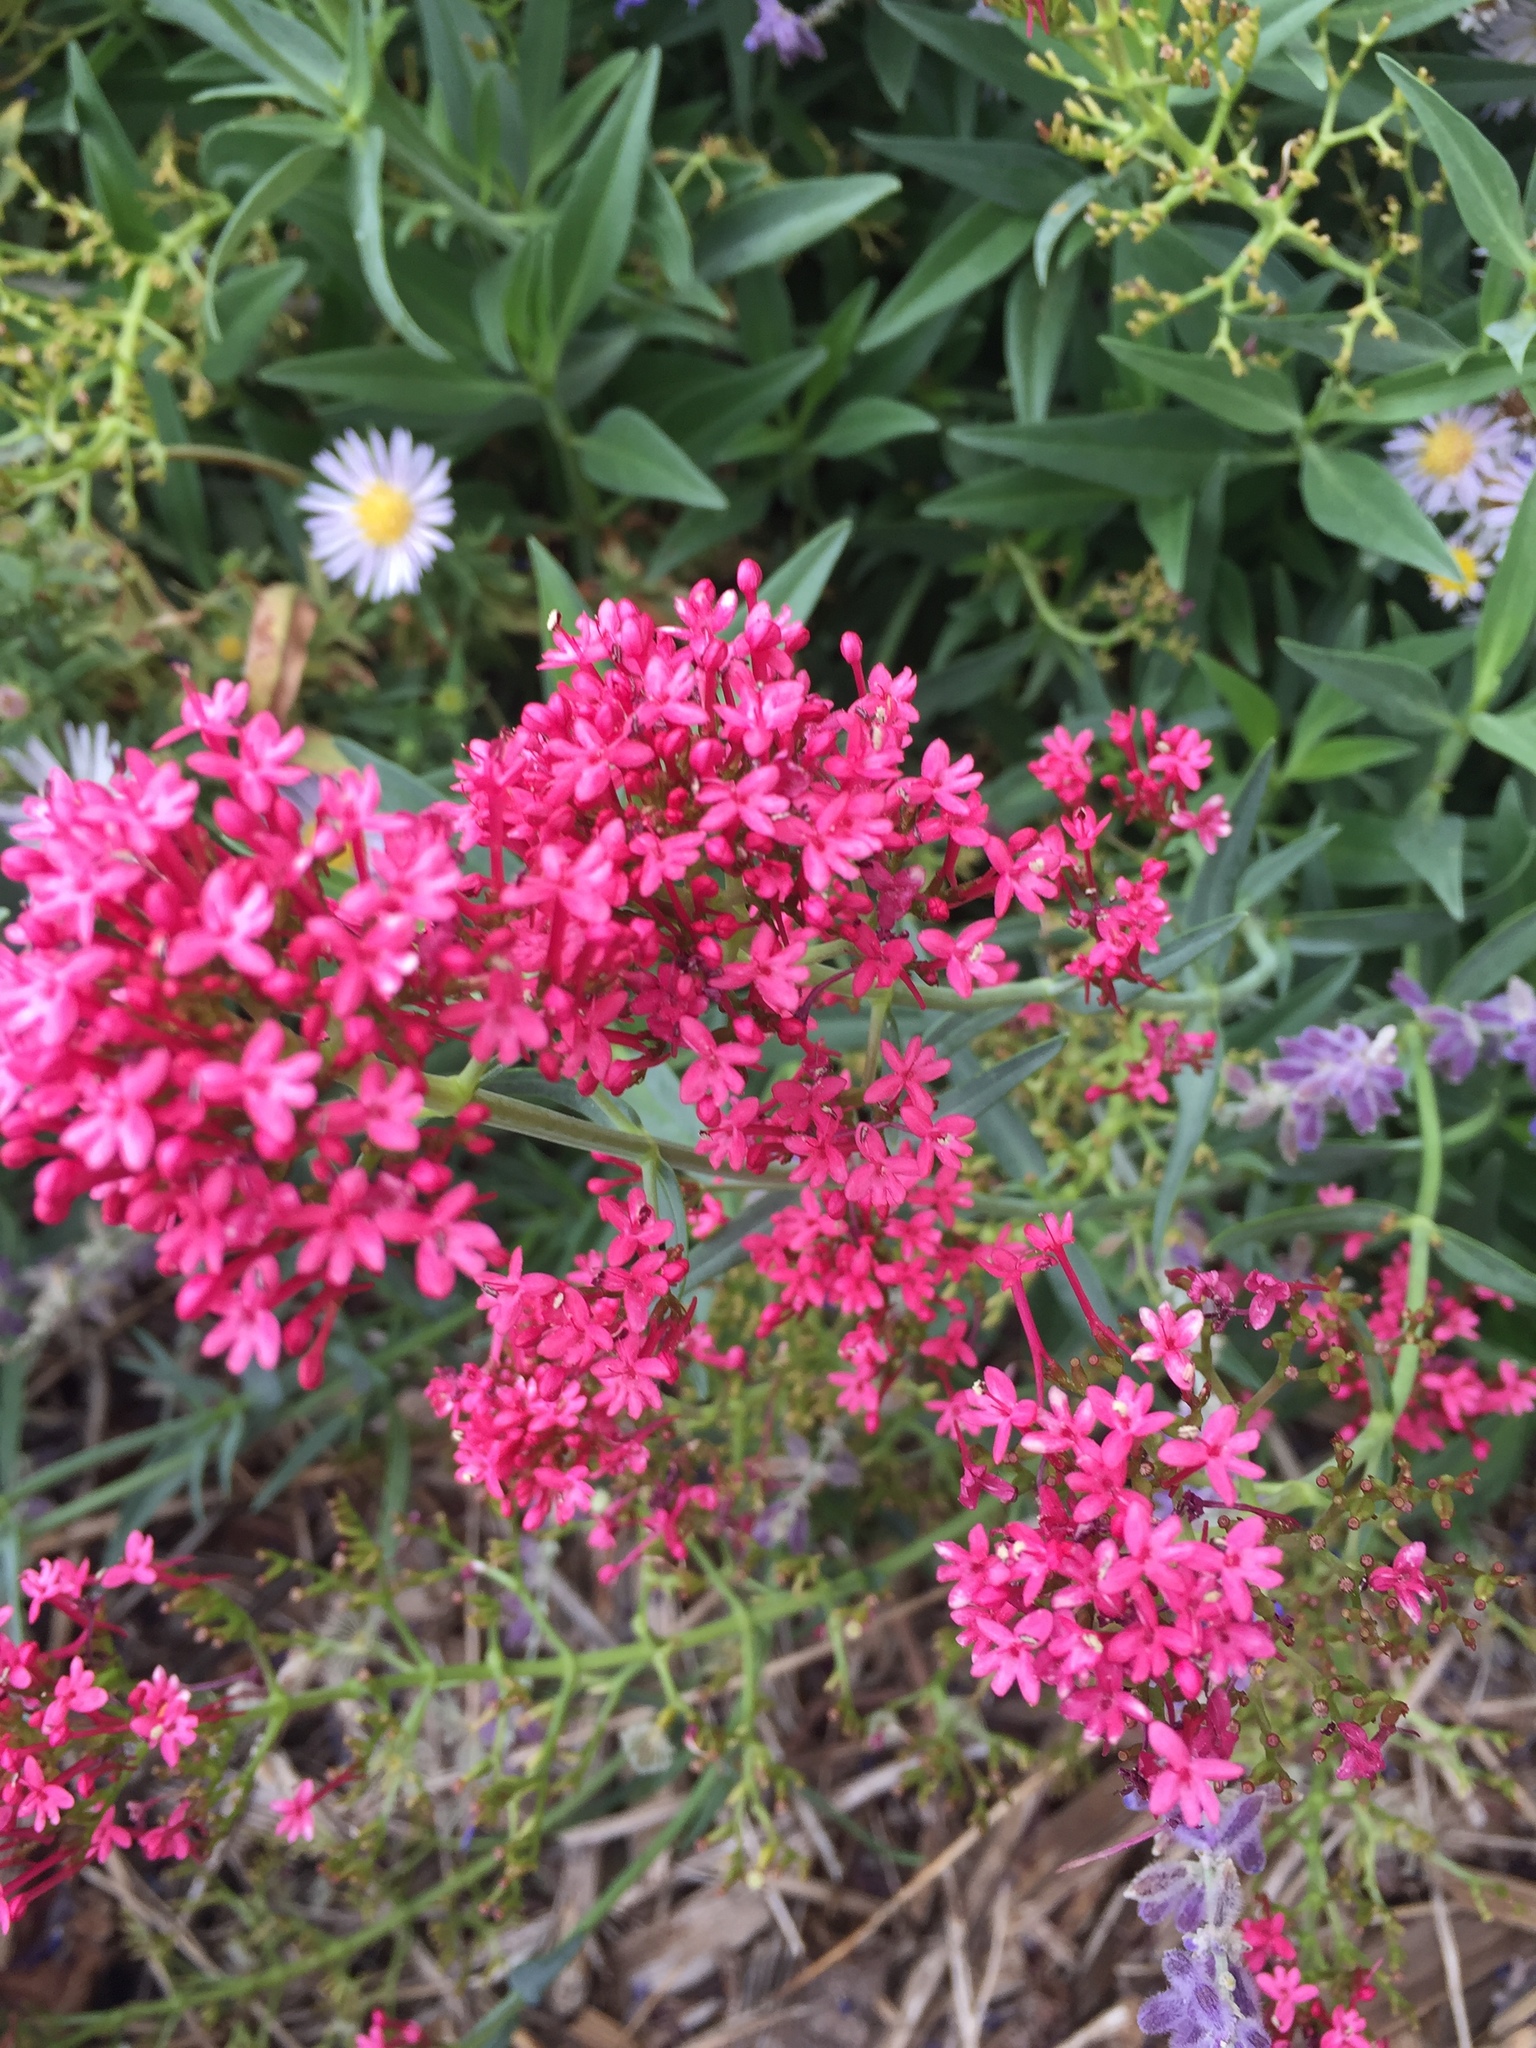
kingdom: Plantae
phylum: Tracheophyta
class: Magnoliopsida
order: Dipsacales
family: Caprifoliaceae
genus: Centranthus
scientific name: Centranthus ruber
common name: Red valerian
